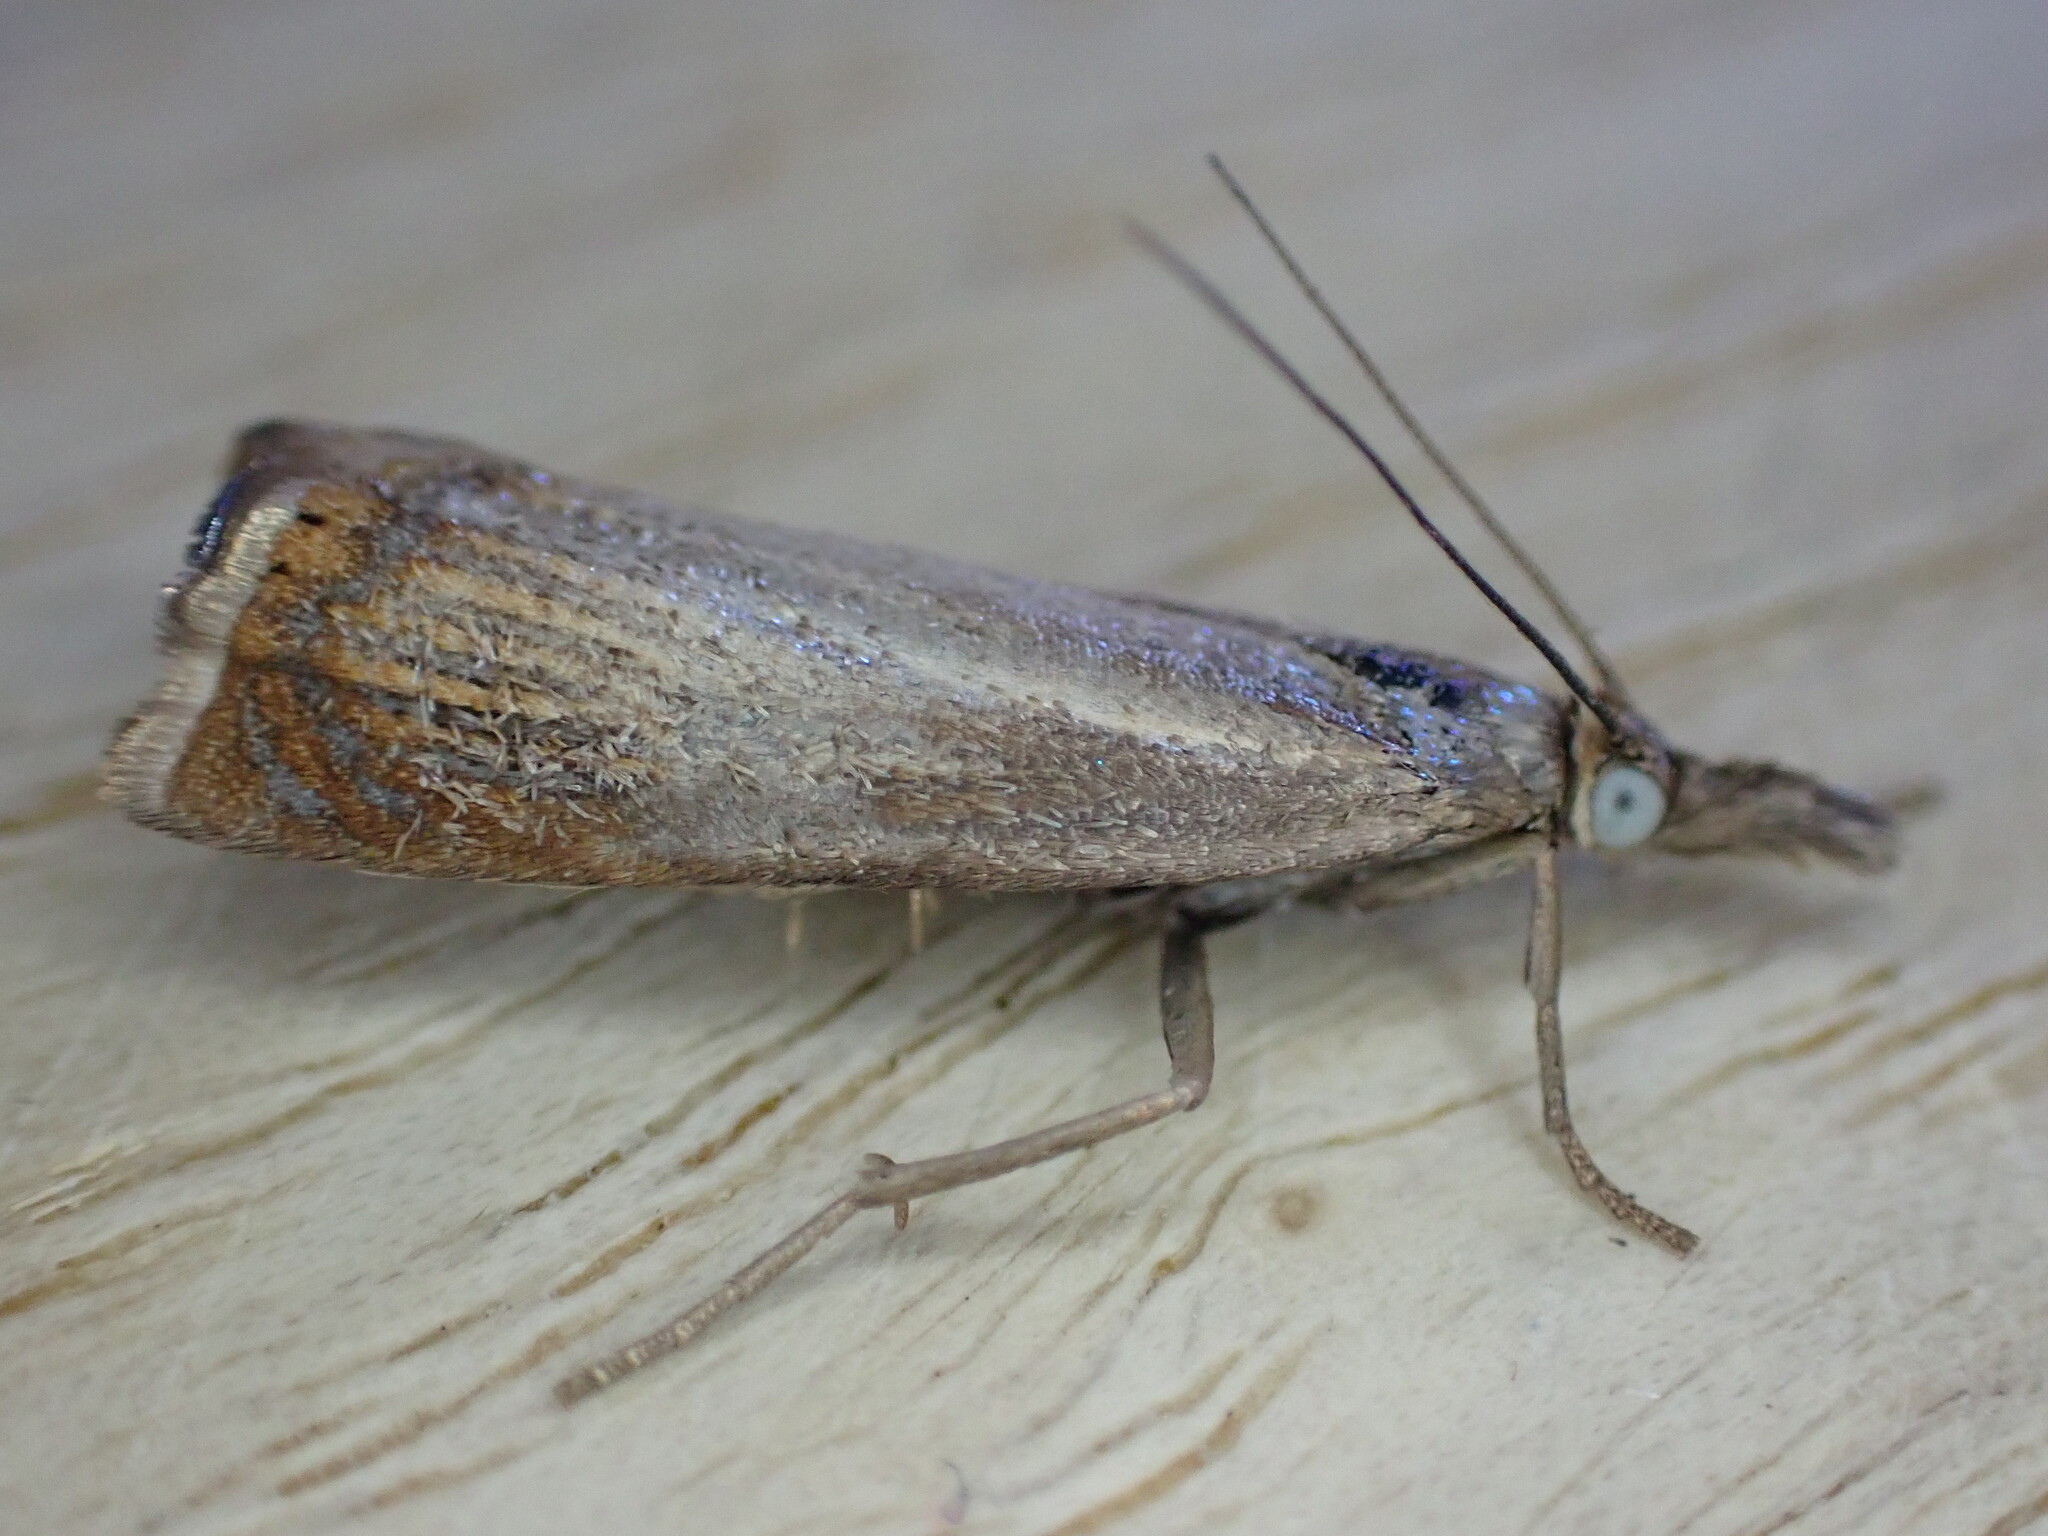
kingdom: Animalia
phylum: Arthropoda
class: Insecta
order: Lepidoptera
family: Crambidae
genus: Chrysoteuchia
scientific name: Chrysoteuchia culmella
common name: Garden grass-veneer
